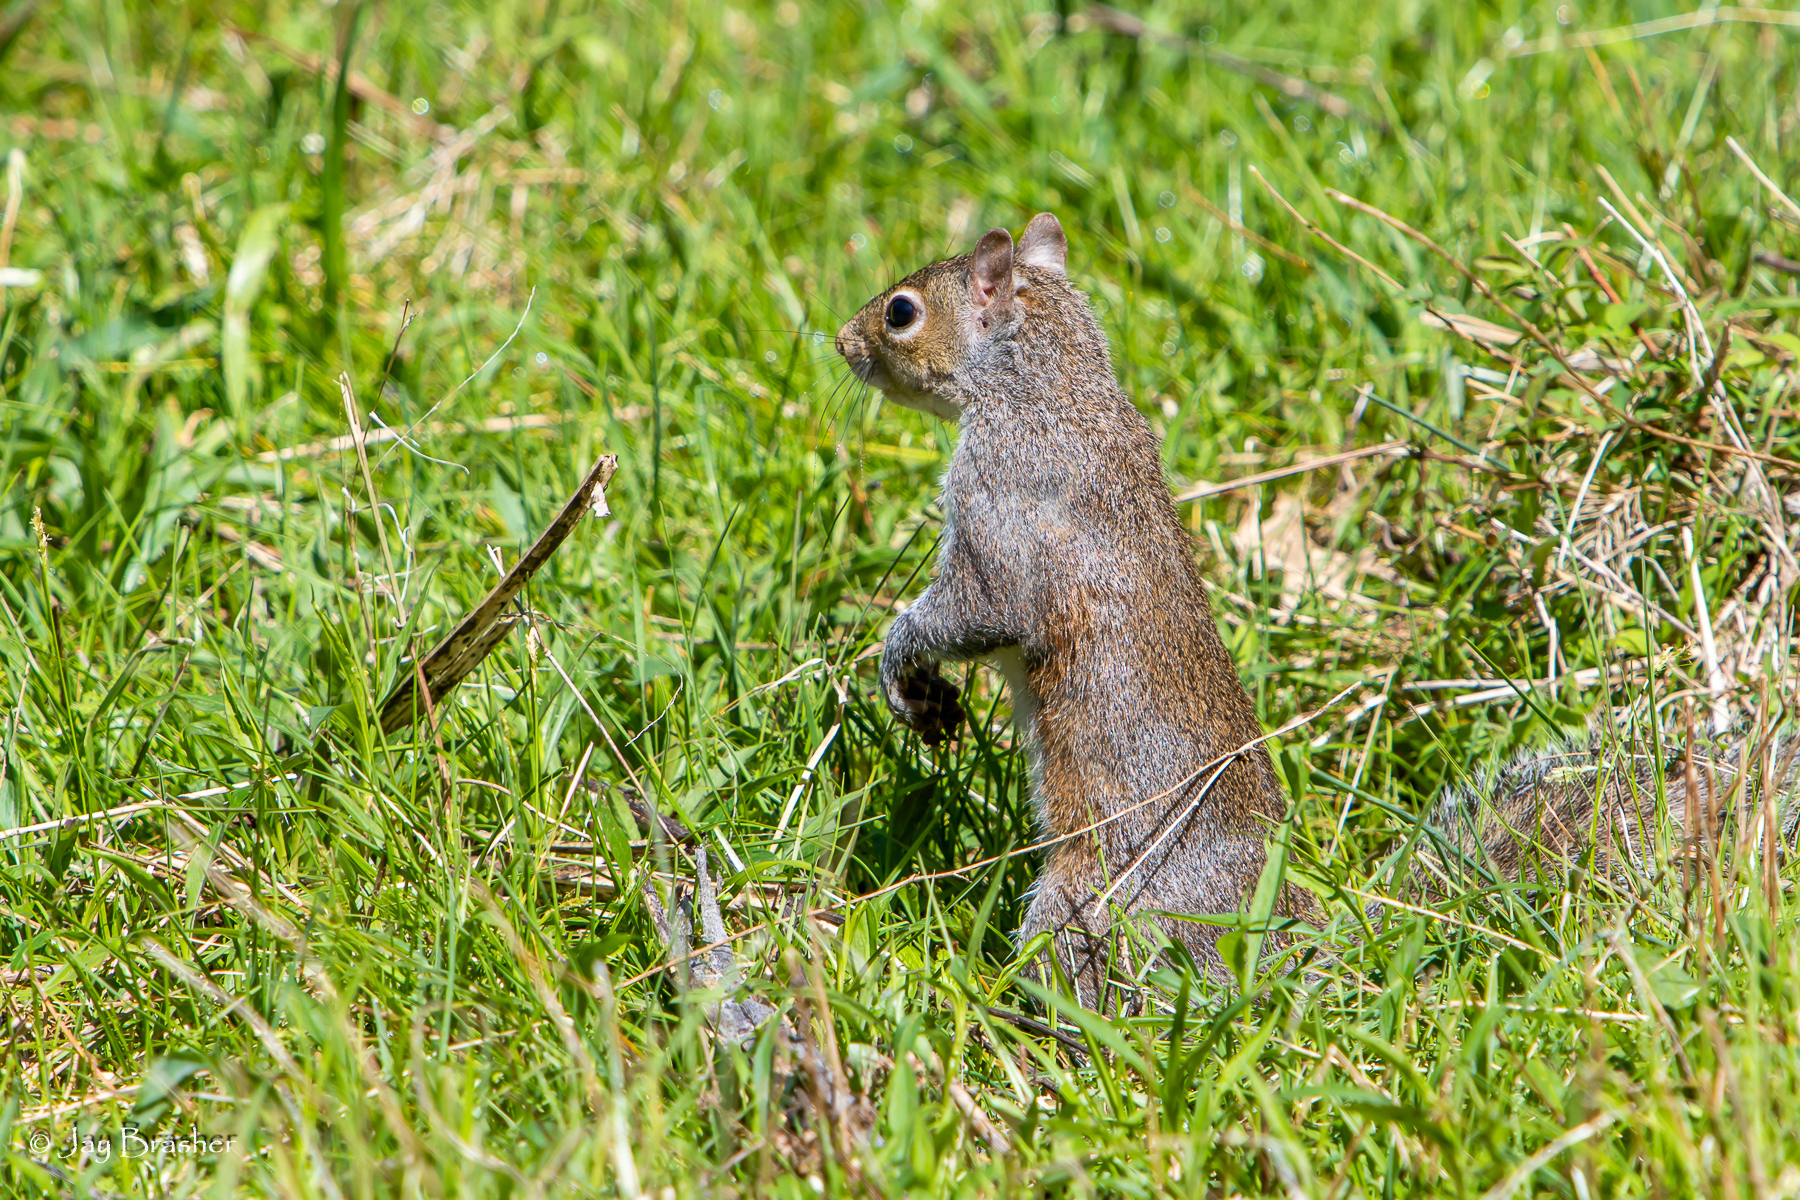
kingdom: Animalia
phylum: Chordata
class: Mammalia
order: Rodentia
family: Sciuridae
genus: Sciurus
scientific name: Sciurus carolinensis
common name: Eastern gray squirrel
